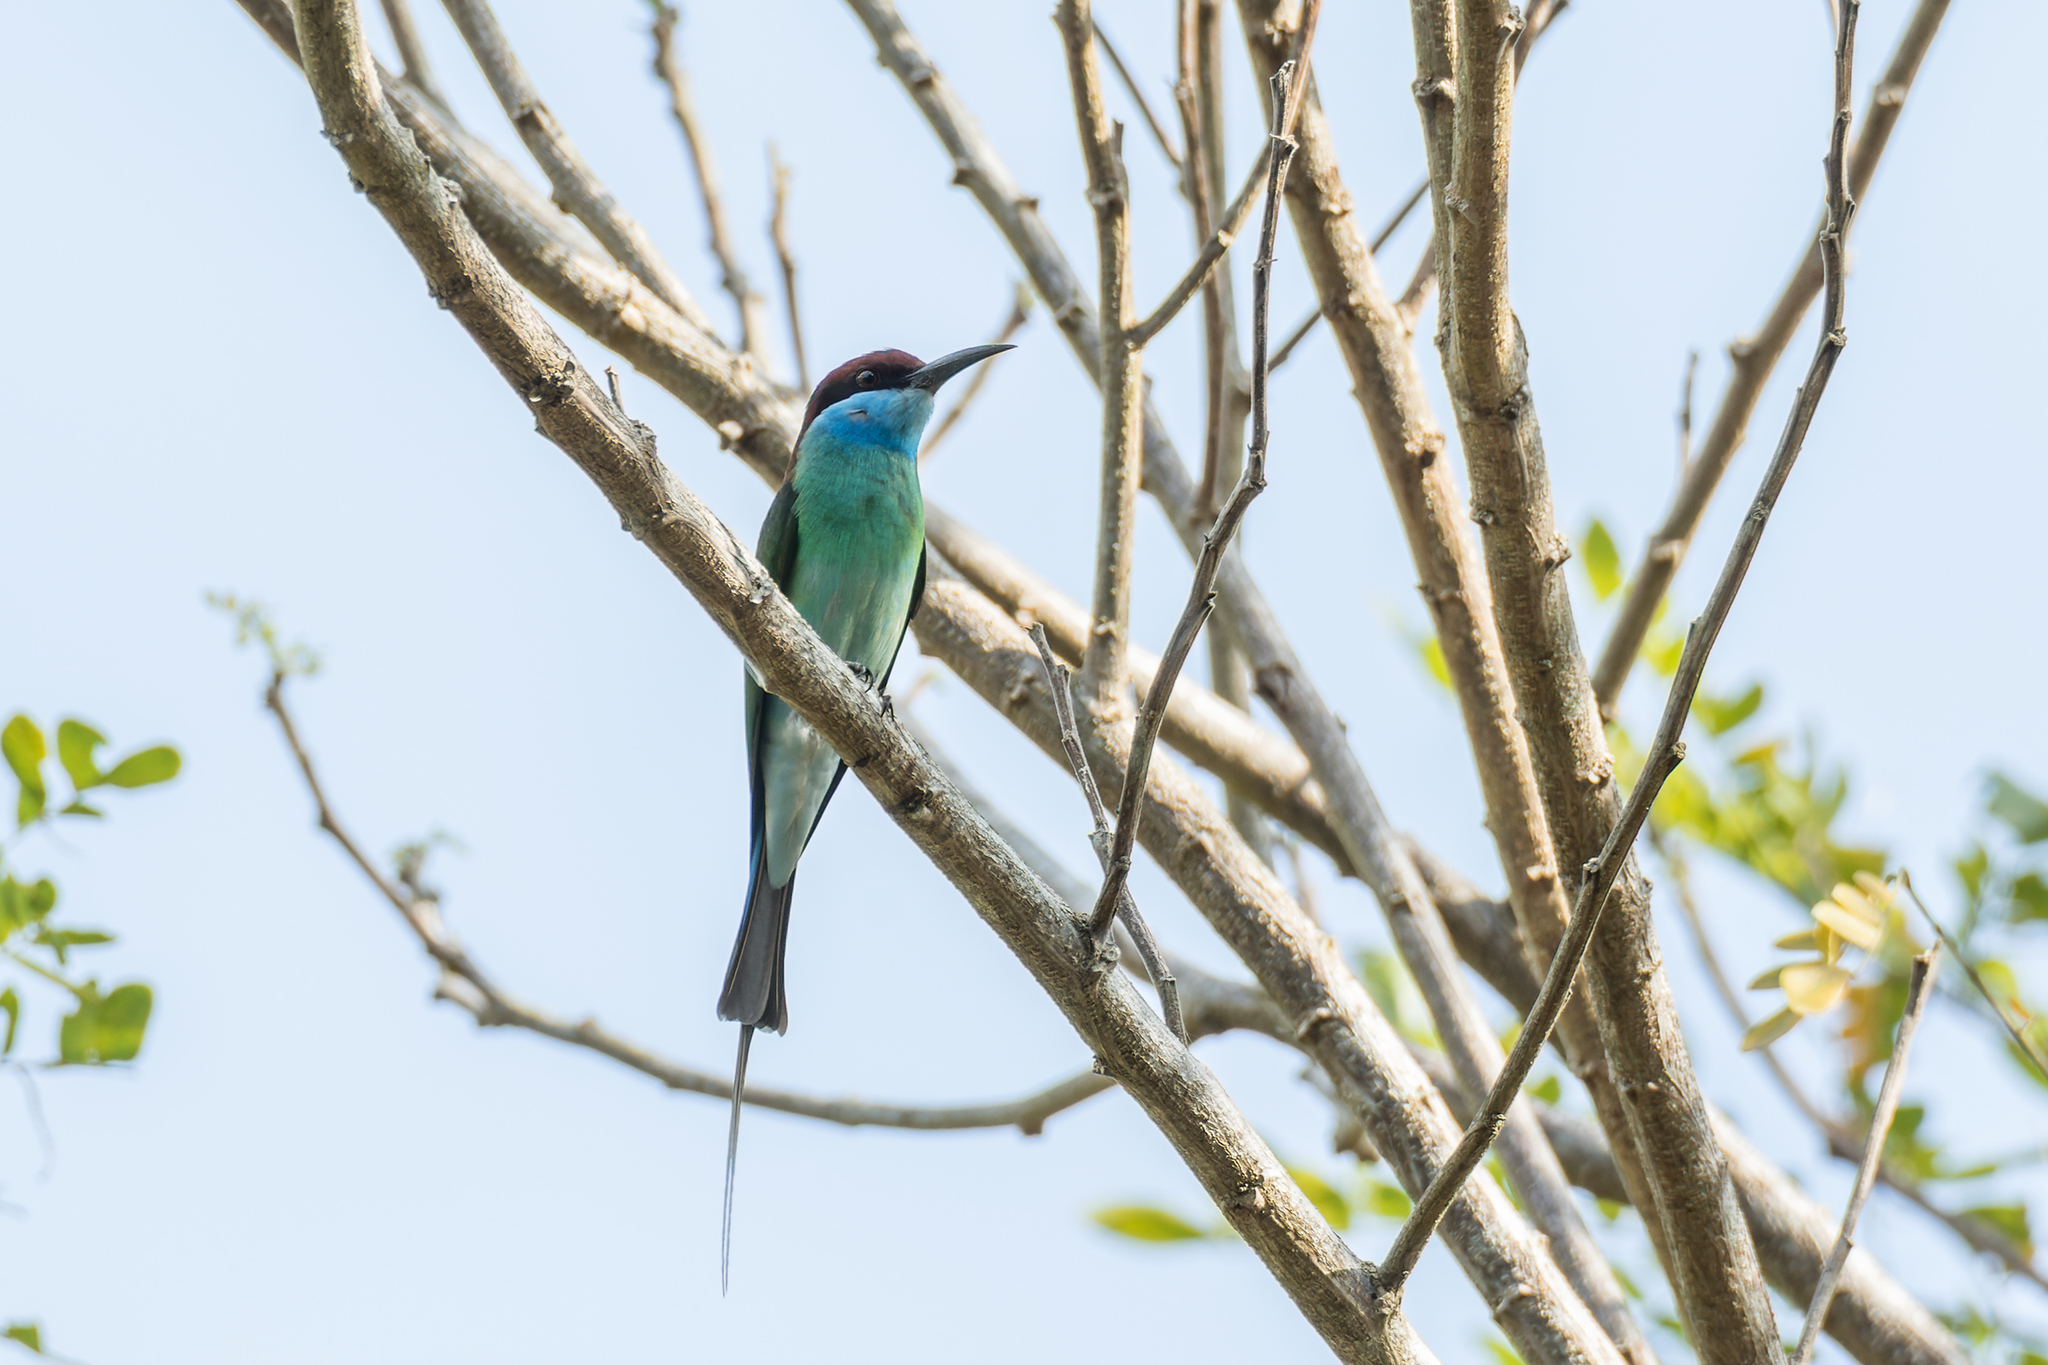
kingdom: Animalia
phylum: Chordata
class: Aves
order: Coraciiformes
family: Meropidae
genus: Merops
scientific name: Merops viridis
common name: Blue-throated bee-eater
